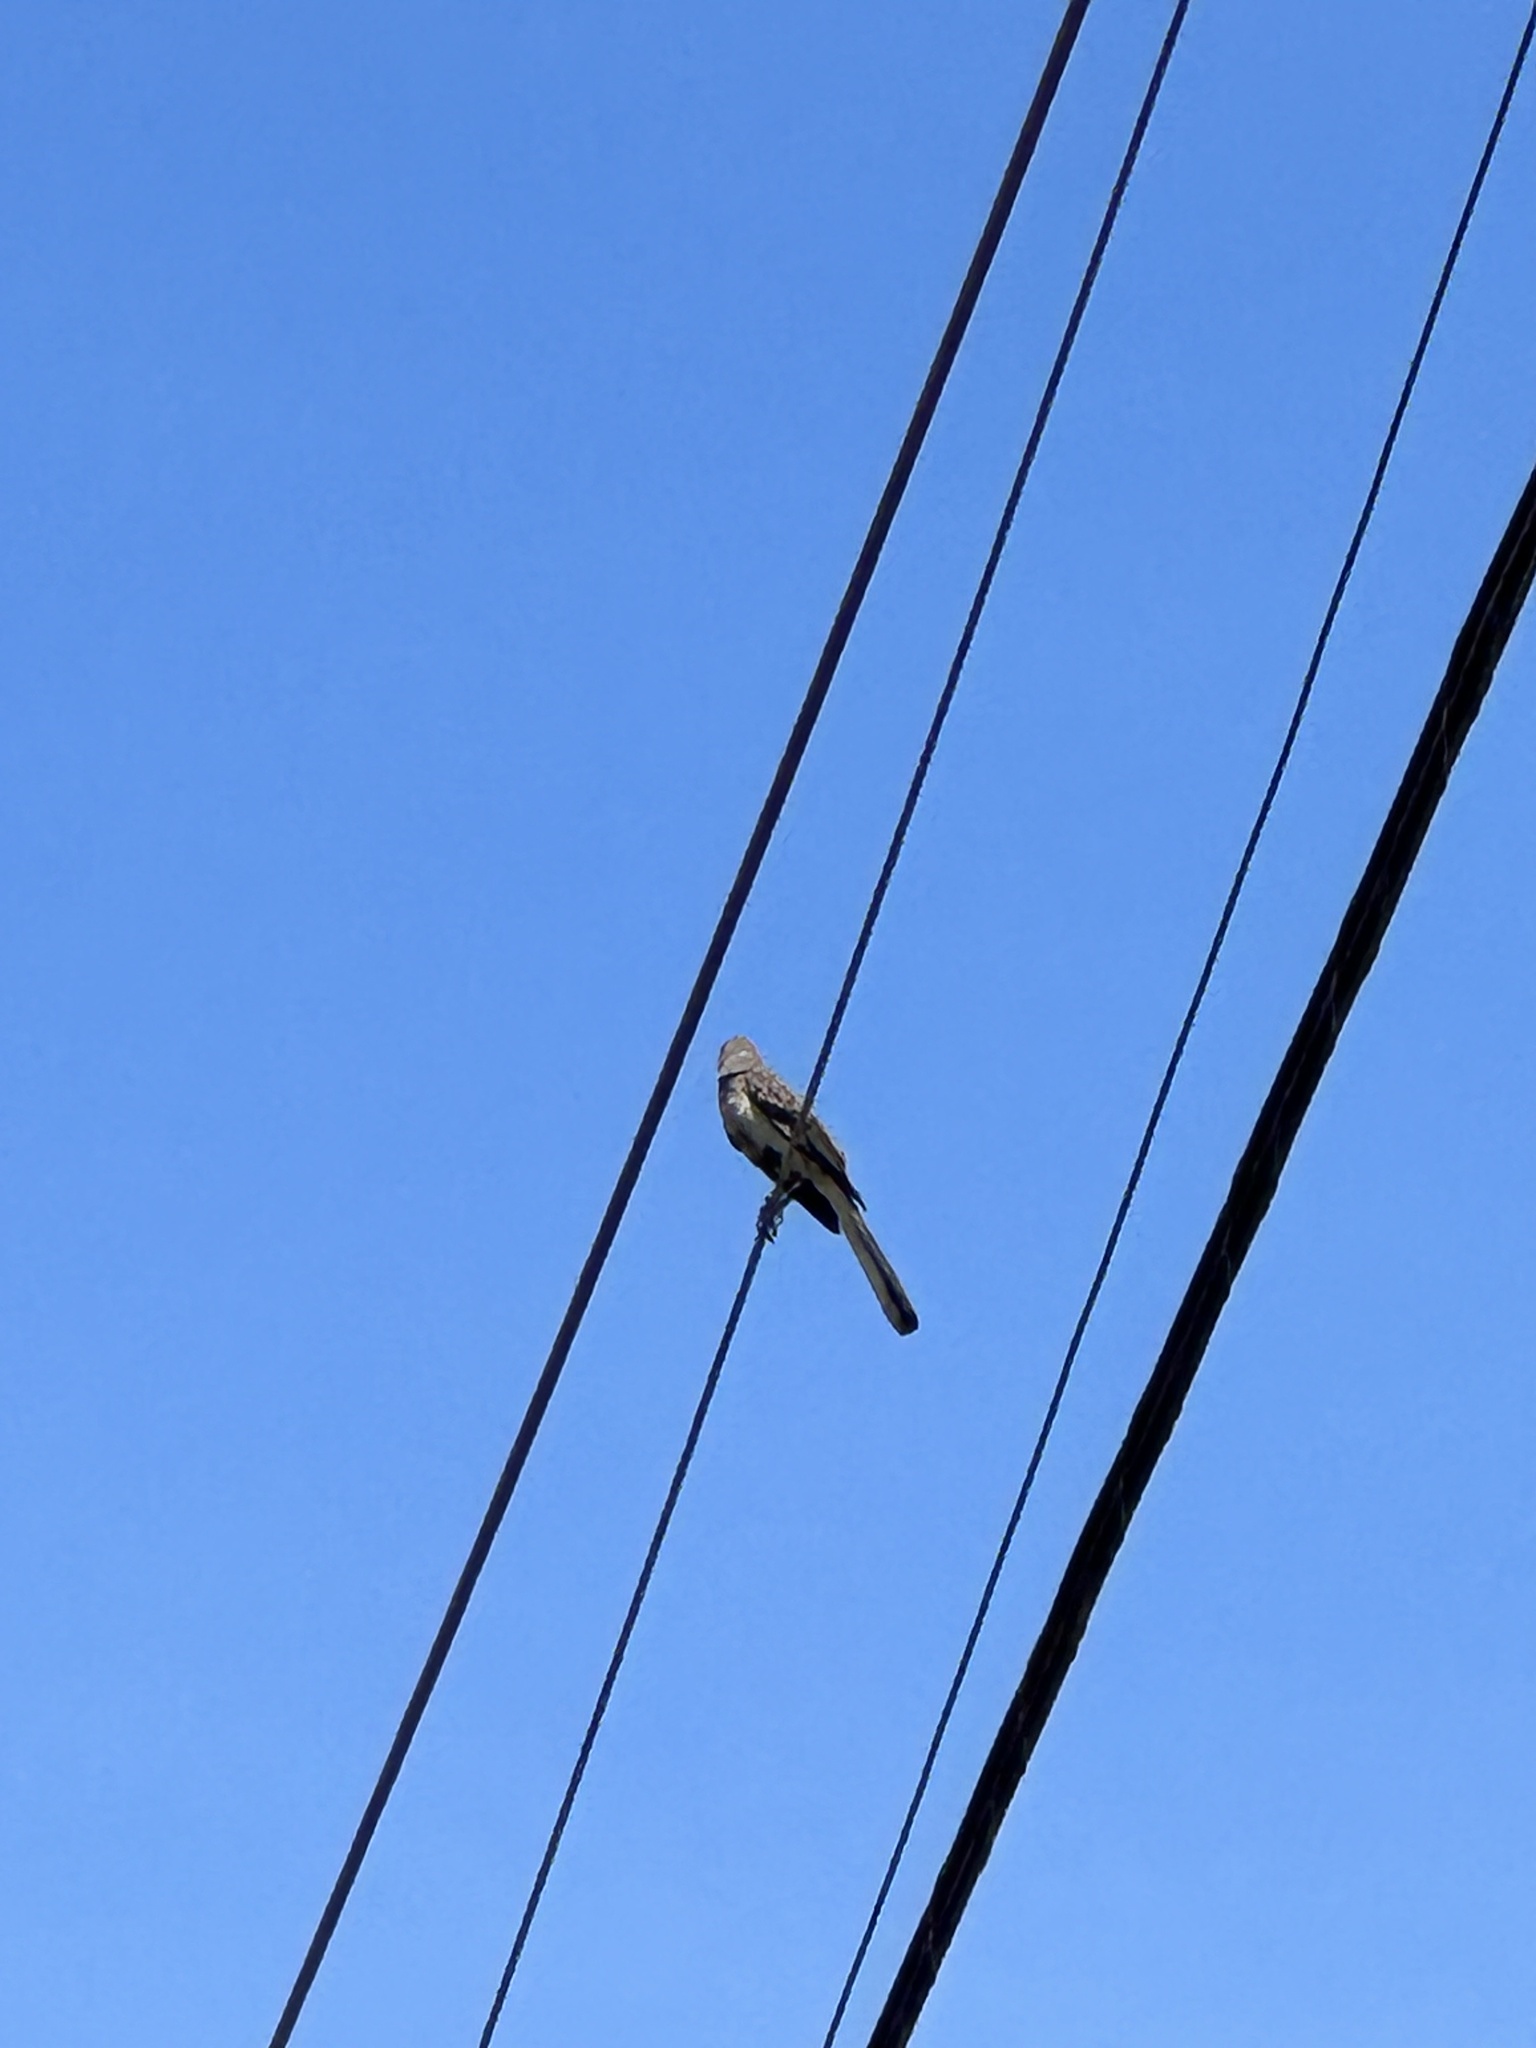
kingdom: Animalia
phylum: Chordata
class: Aves
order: Passeriformes
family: Mimidae
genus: Mimus
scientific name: Mimus polyglottos
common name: Northern mockingbird
